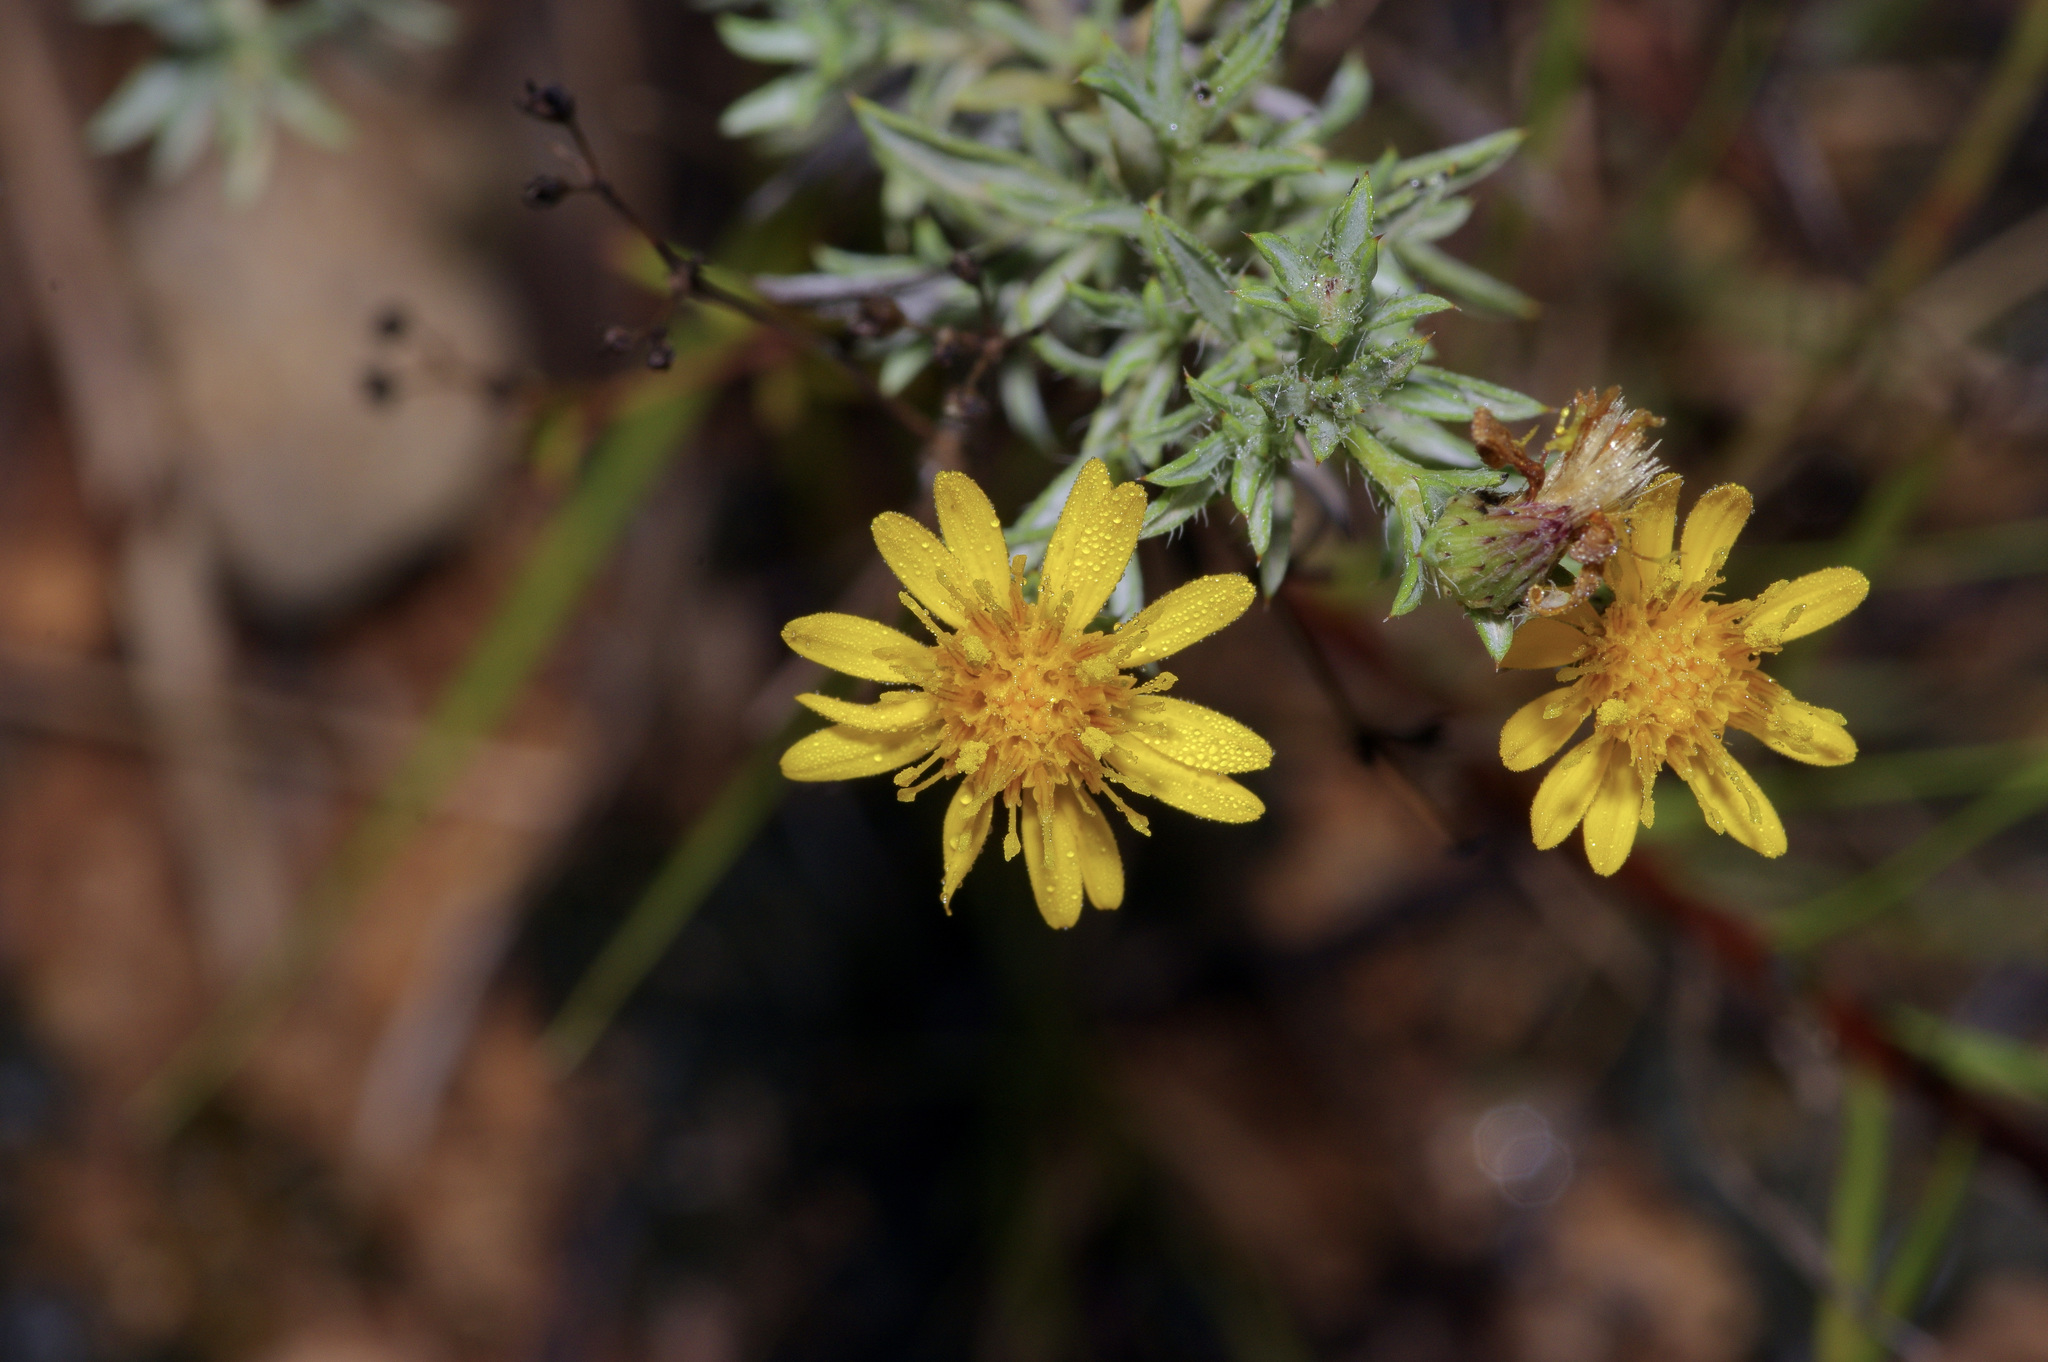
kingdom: Plantae
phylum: Tracheophyta
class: Magnoliopsida
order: Asterales
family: Asteraceae
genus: Heterotheca
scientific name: Heterotheca canescens
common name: Hoary golden-aster
